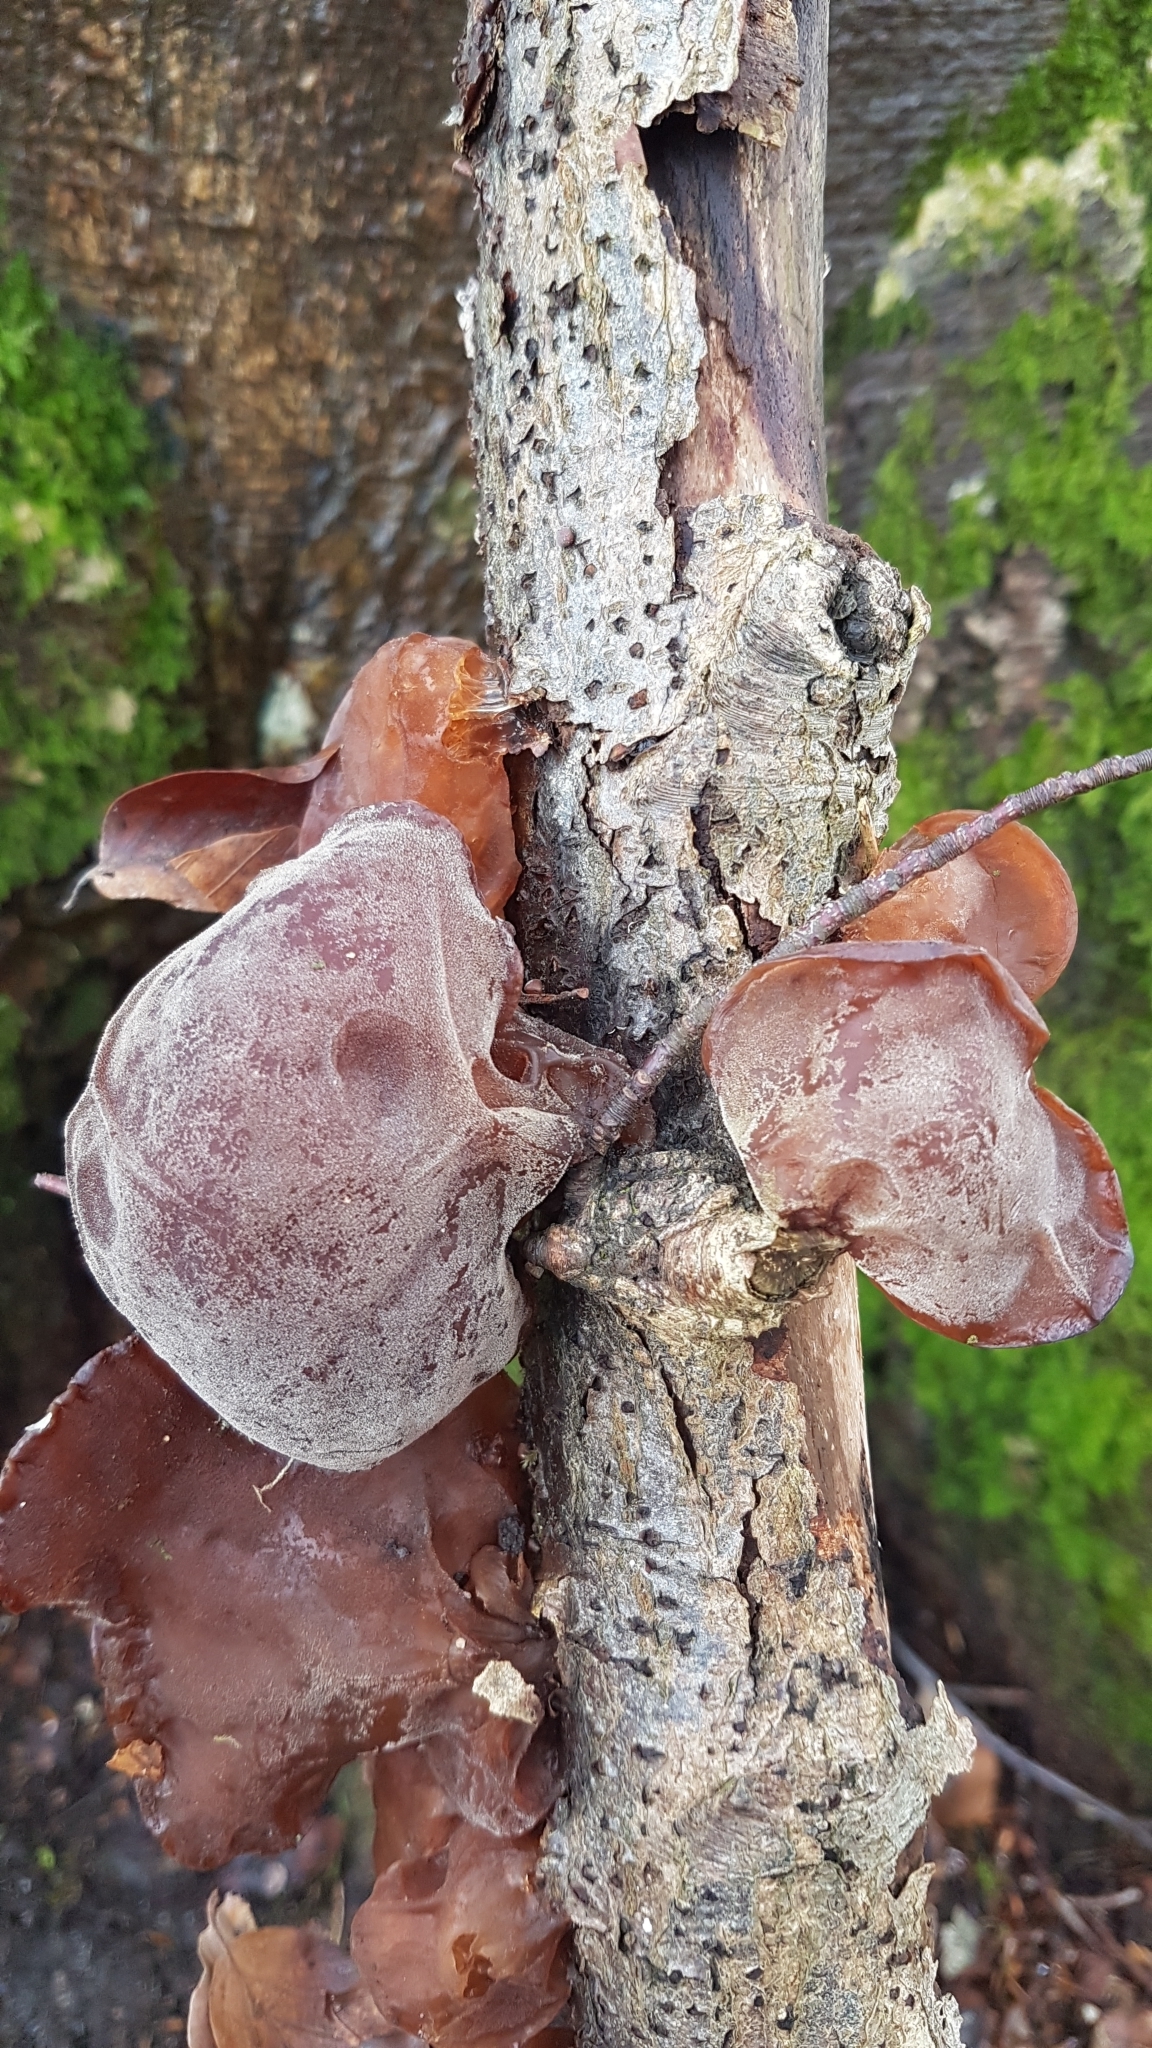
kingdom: Fungi
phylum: Basidiomycota
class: Agaricomycetes
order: Auriculariales
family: Auriculariaceae
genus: Auricularia
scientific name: Auricularia auricula-judae
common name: Jelly ear
